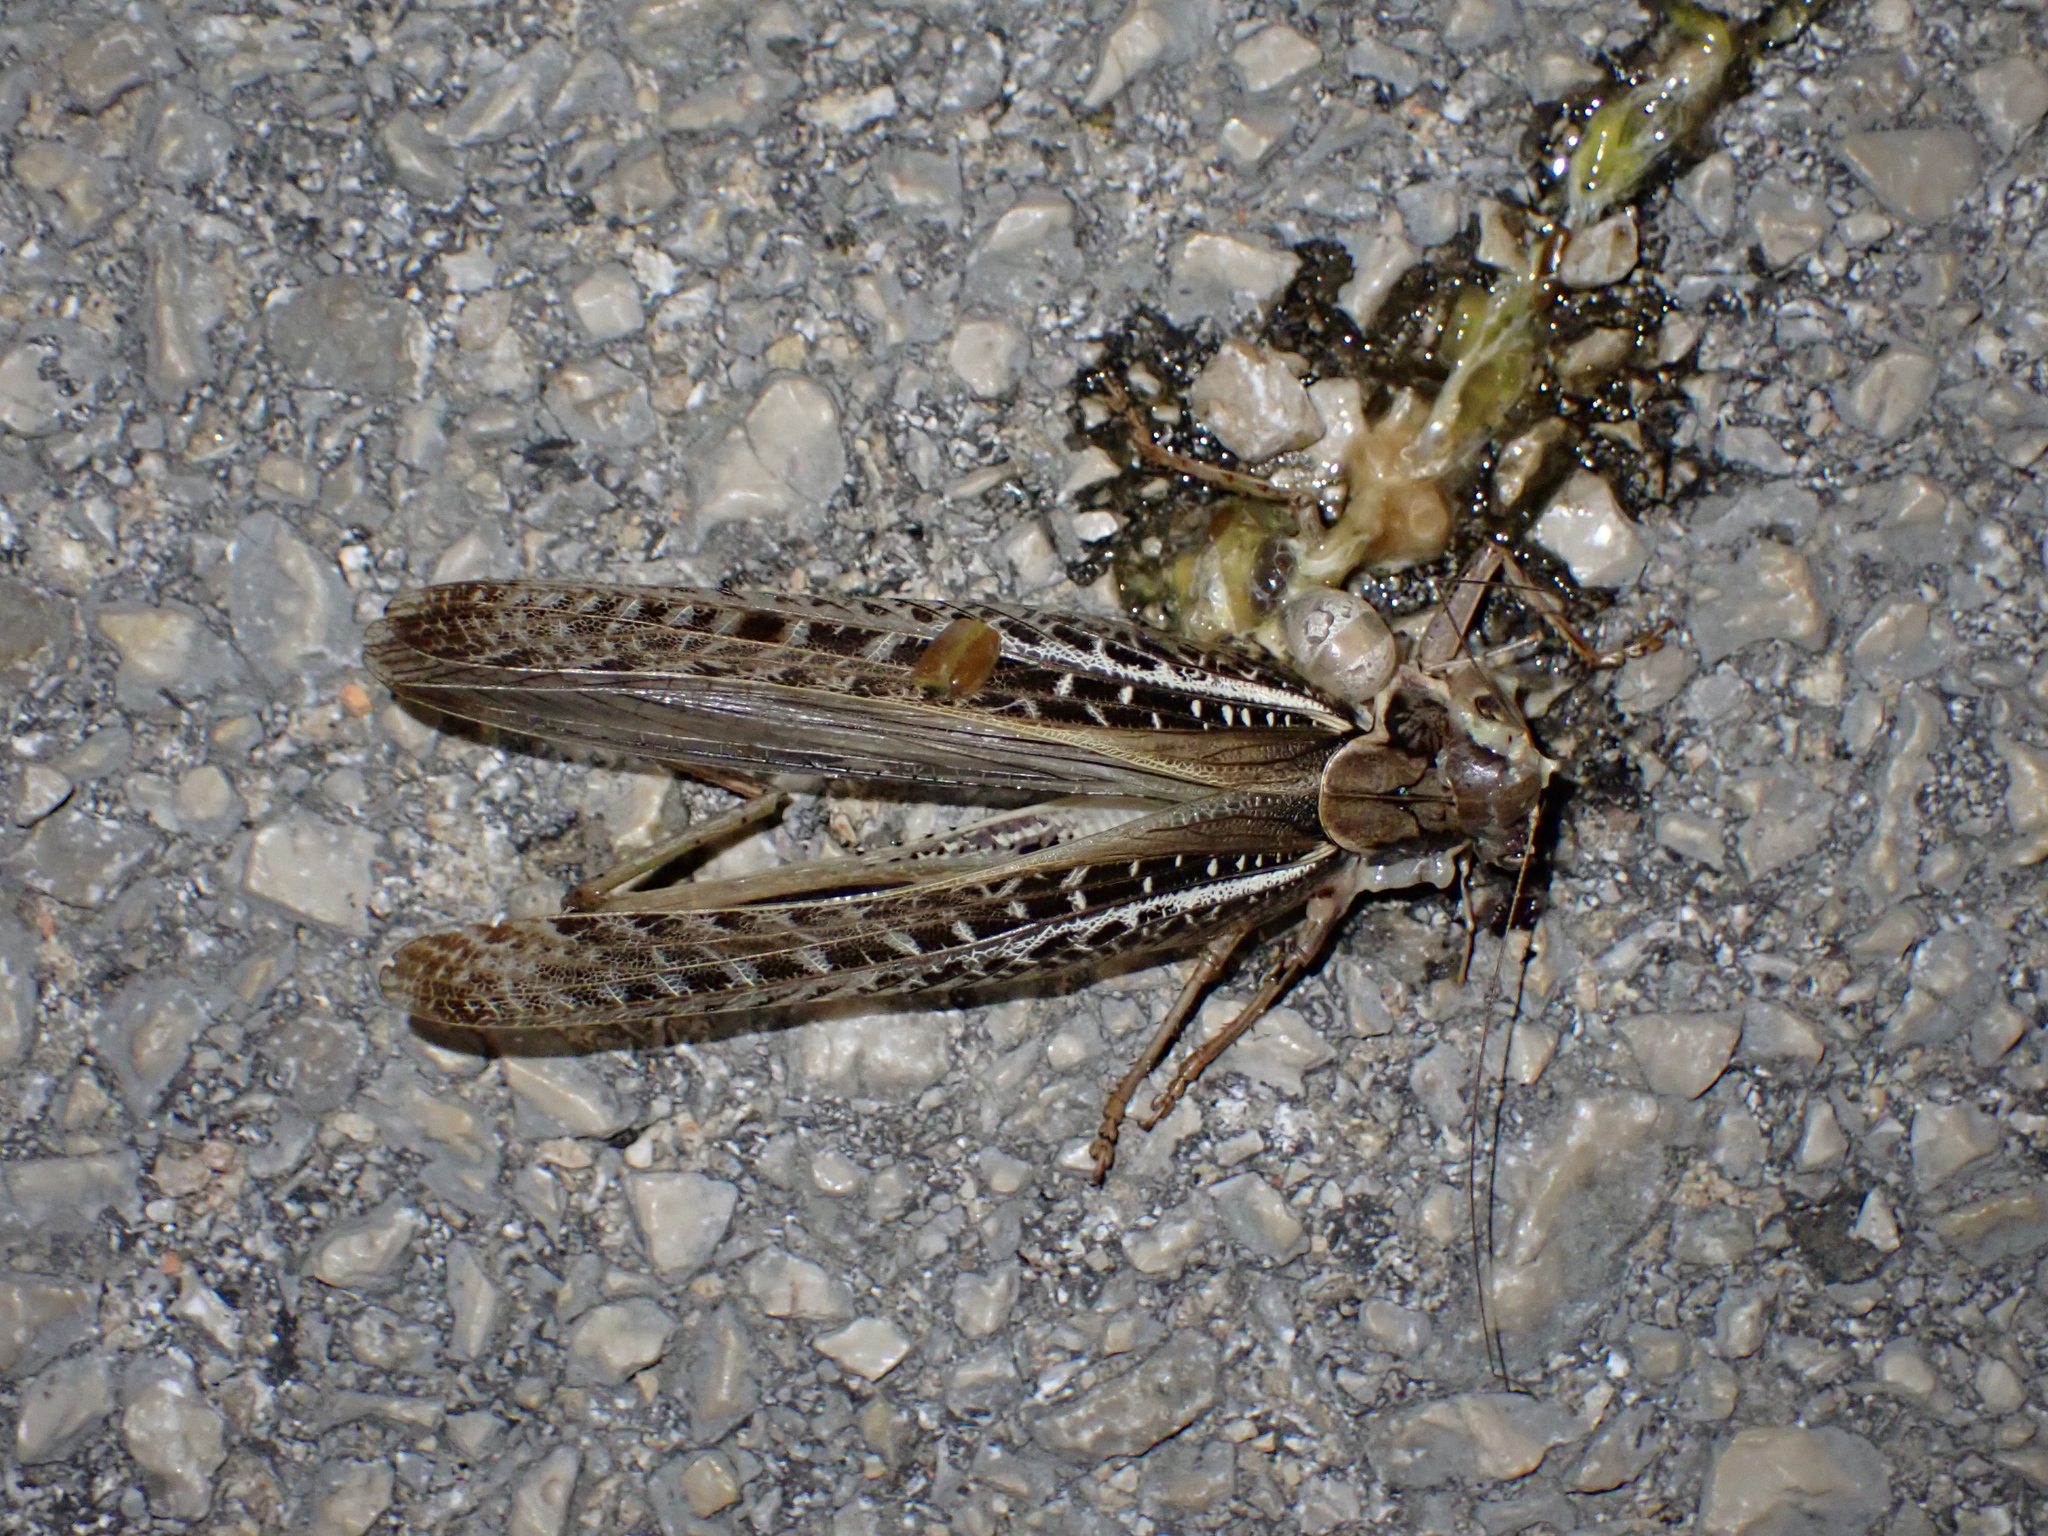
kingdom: Animalia
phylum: Arthropoda
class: Insecta
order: Orthoptera
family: Tettigoniidae
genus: Decticus
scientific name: Decticus albifrons
